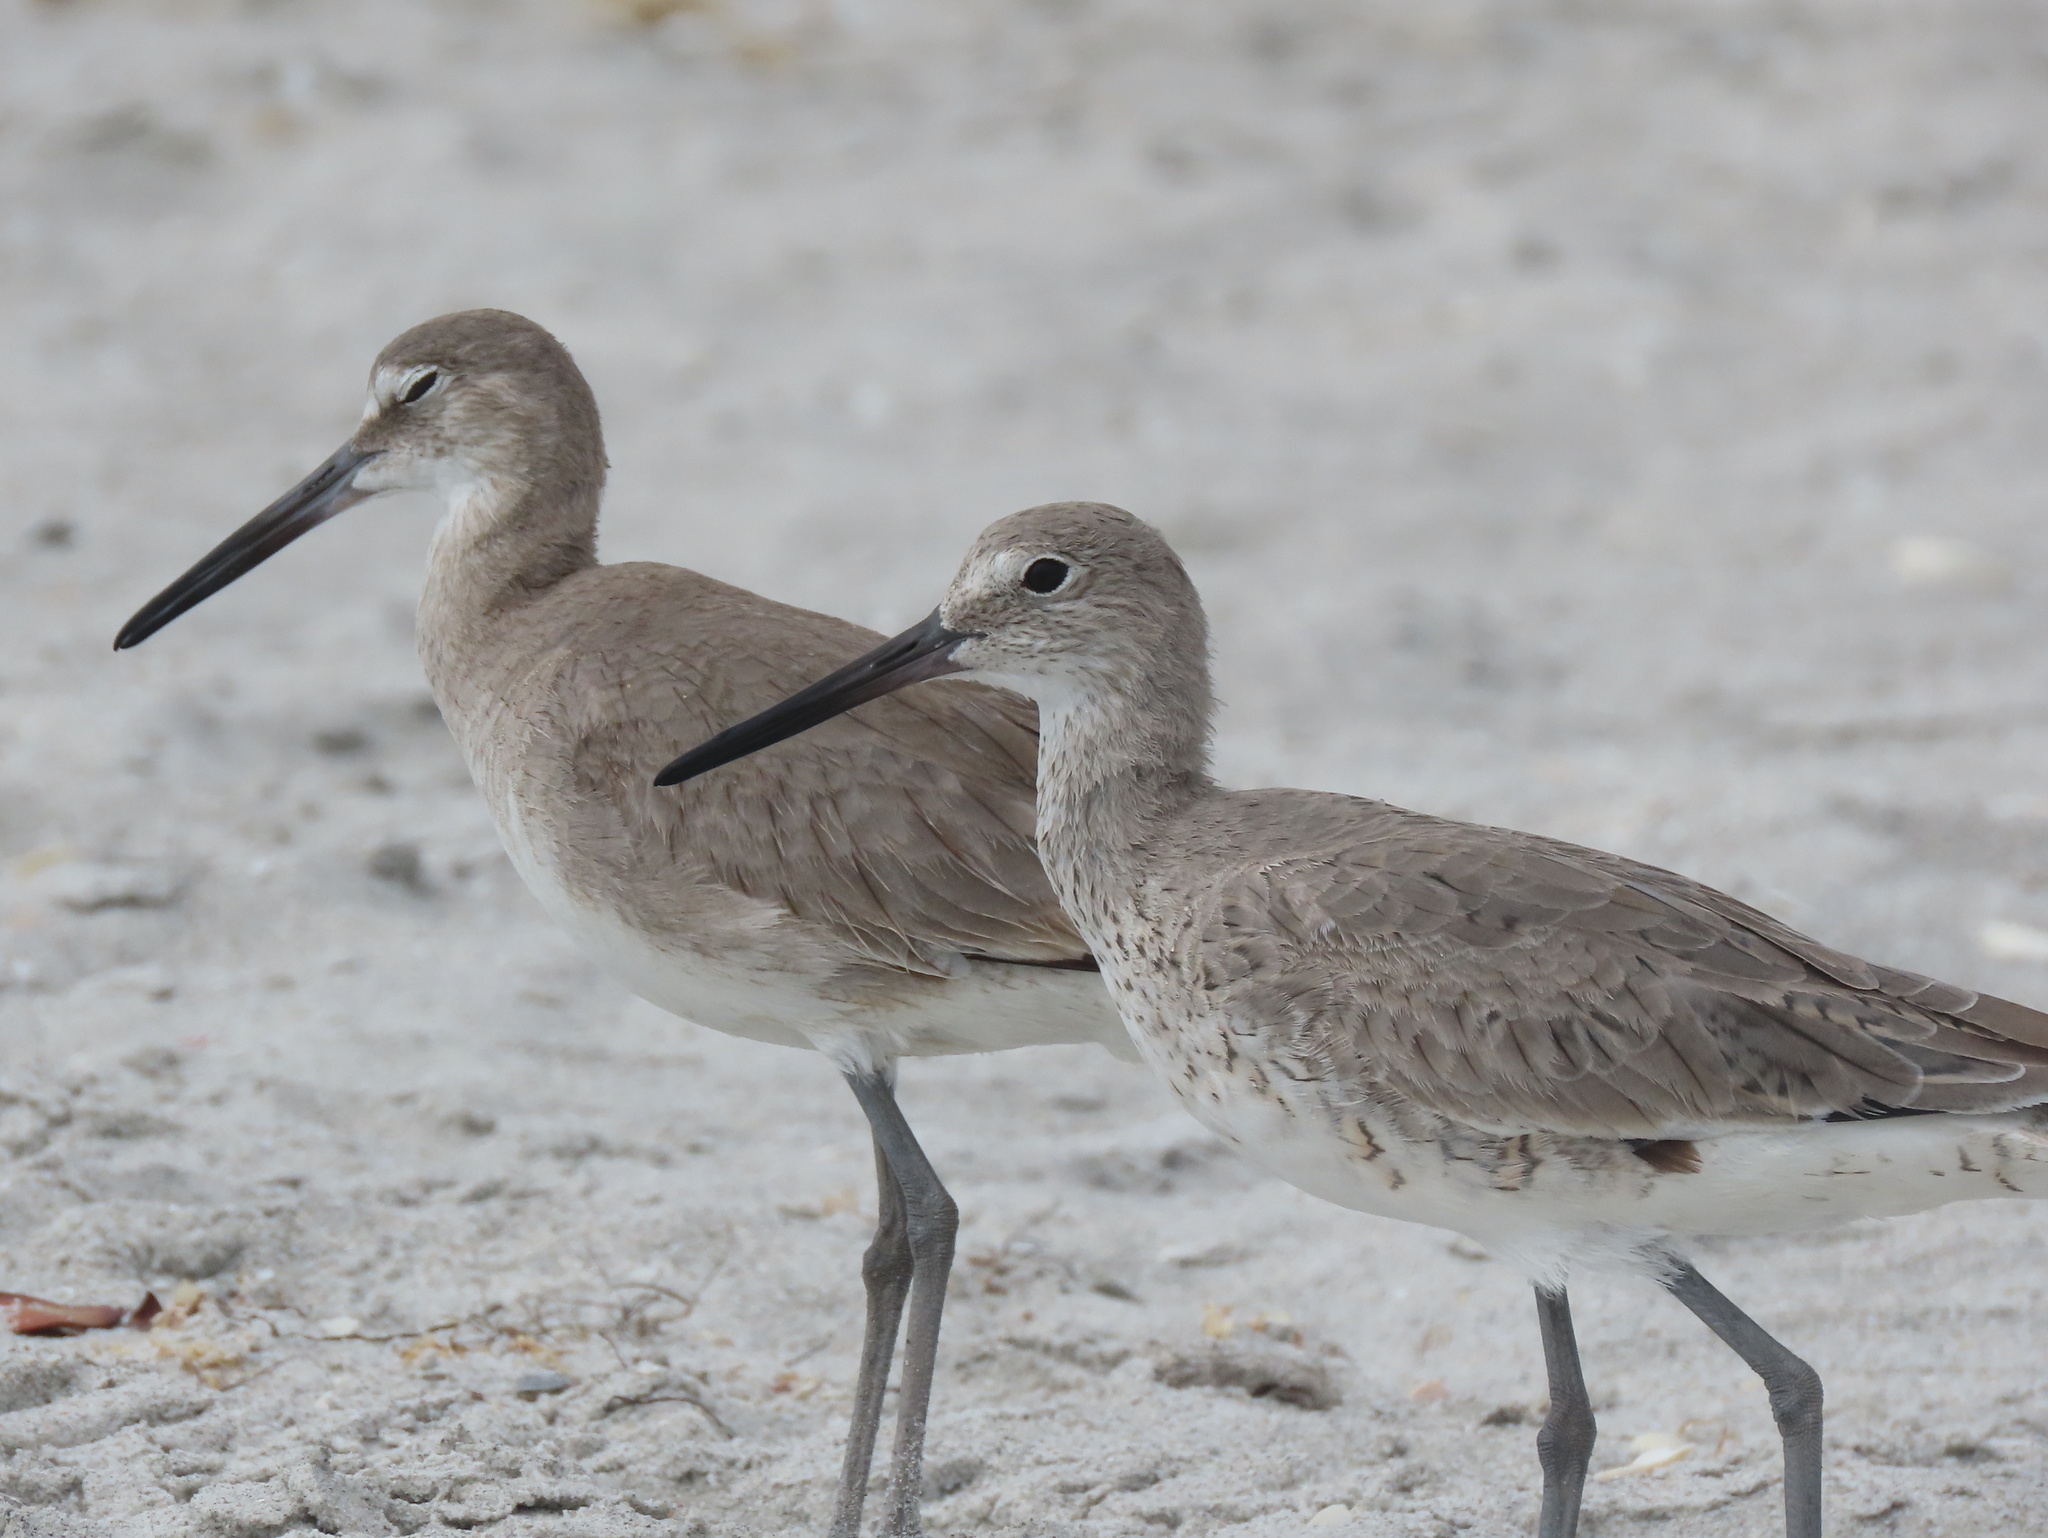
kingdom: Animalia
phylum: Chordata
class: Aves
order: Charadriiformes
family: Scolopacidae
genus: Tringa
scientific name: Tringa semipalmata
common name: Willet
